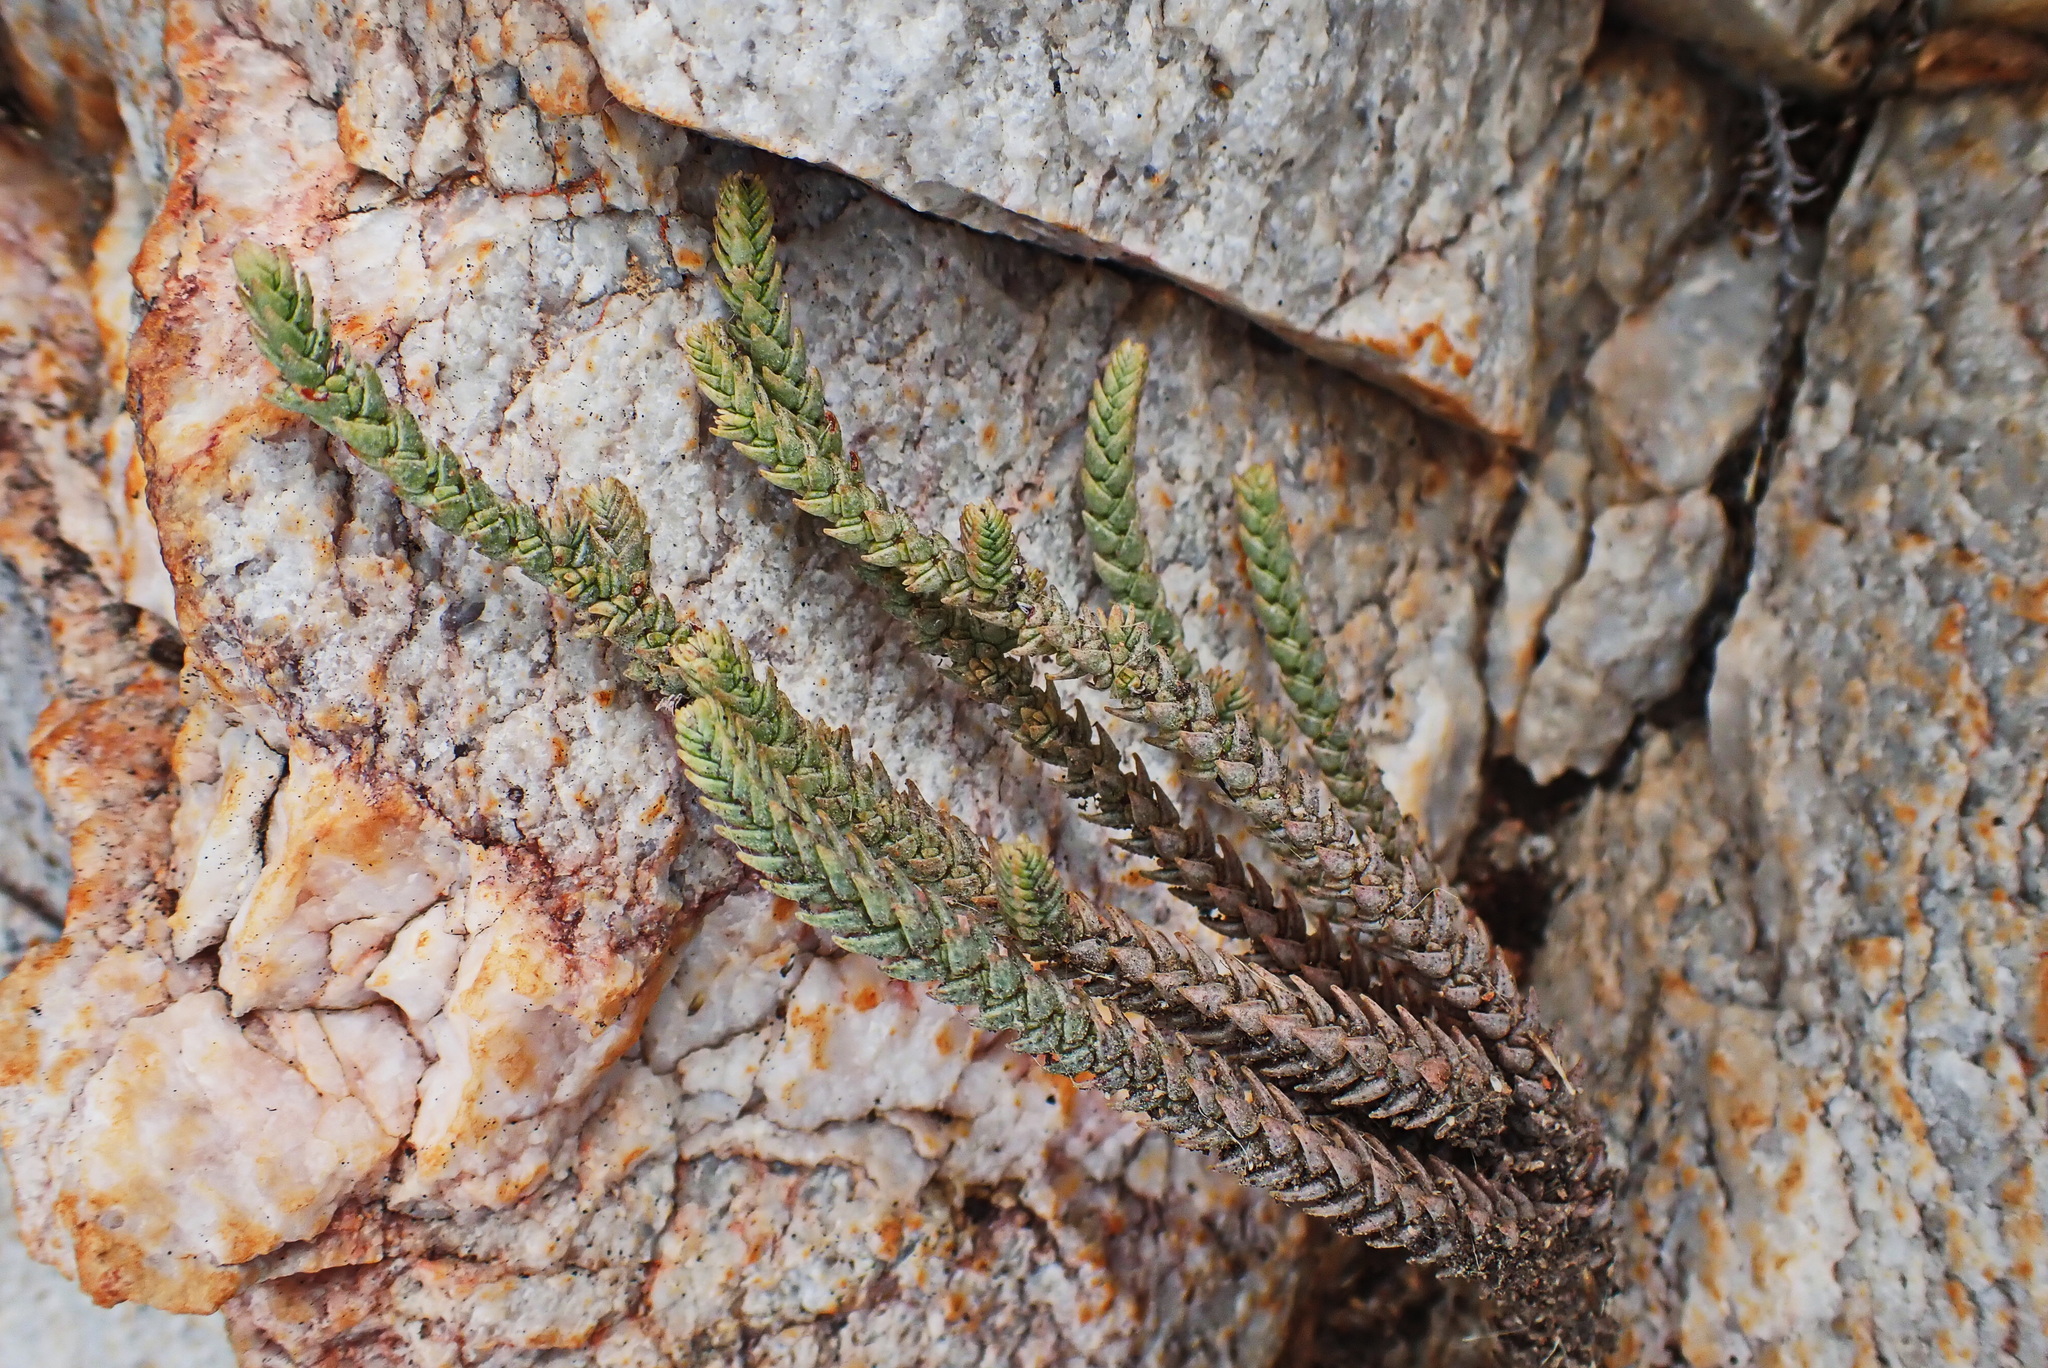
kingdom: Plantae
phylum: Tracheophyta
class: Magnoliopsida
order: Saxifragales
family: Crassulaceae
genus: Crassula
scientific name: Crassula muscosa
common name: Toy-cypress
